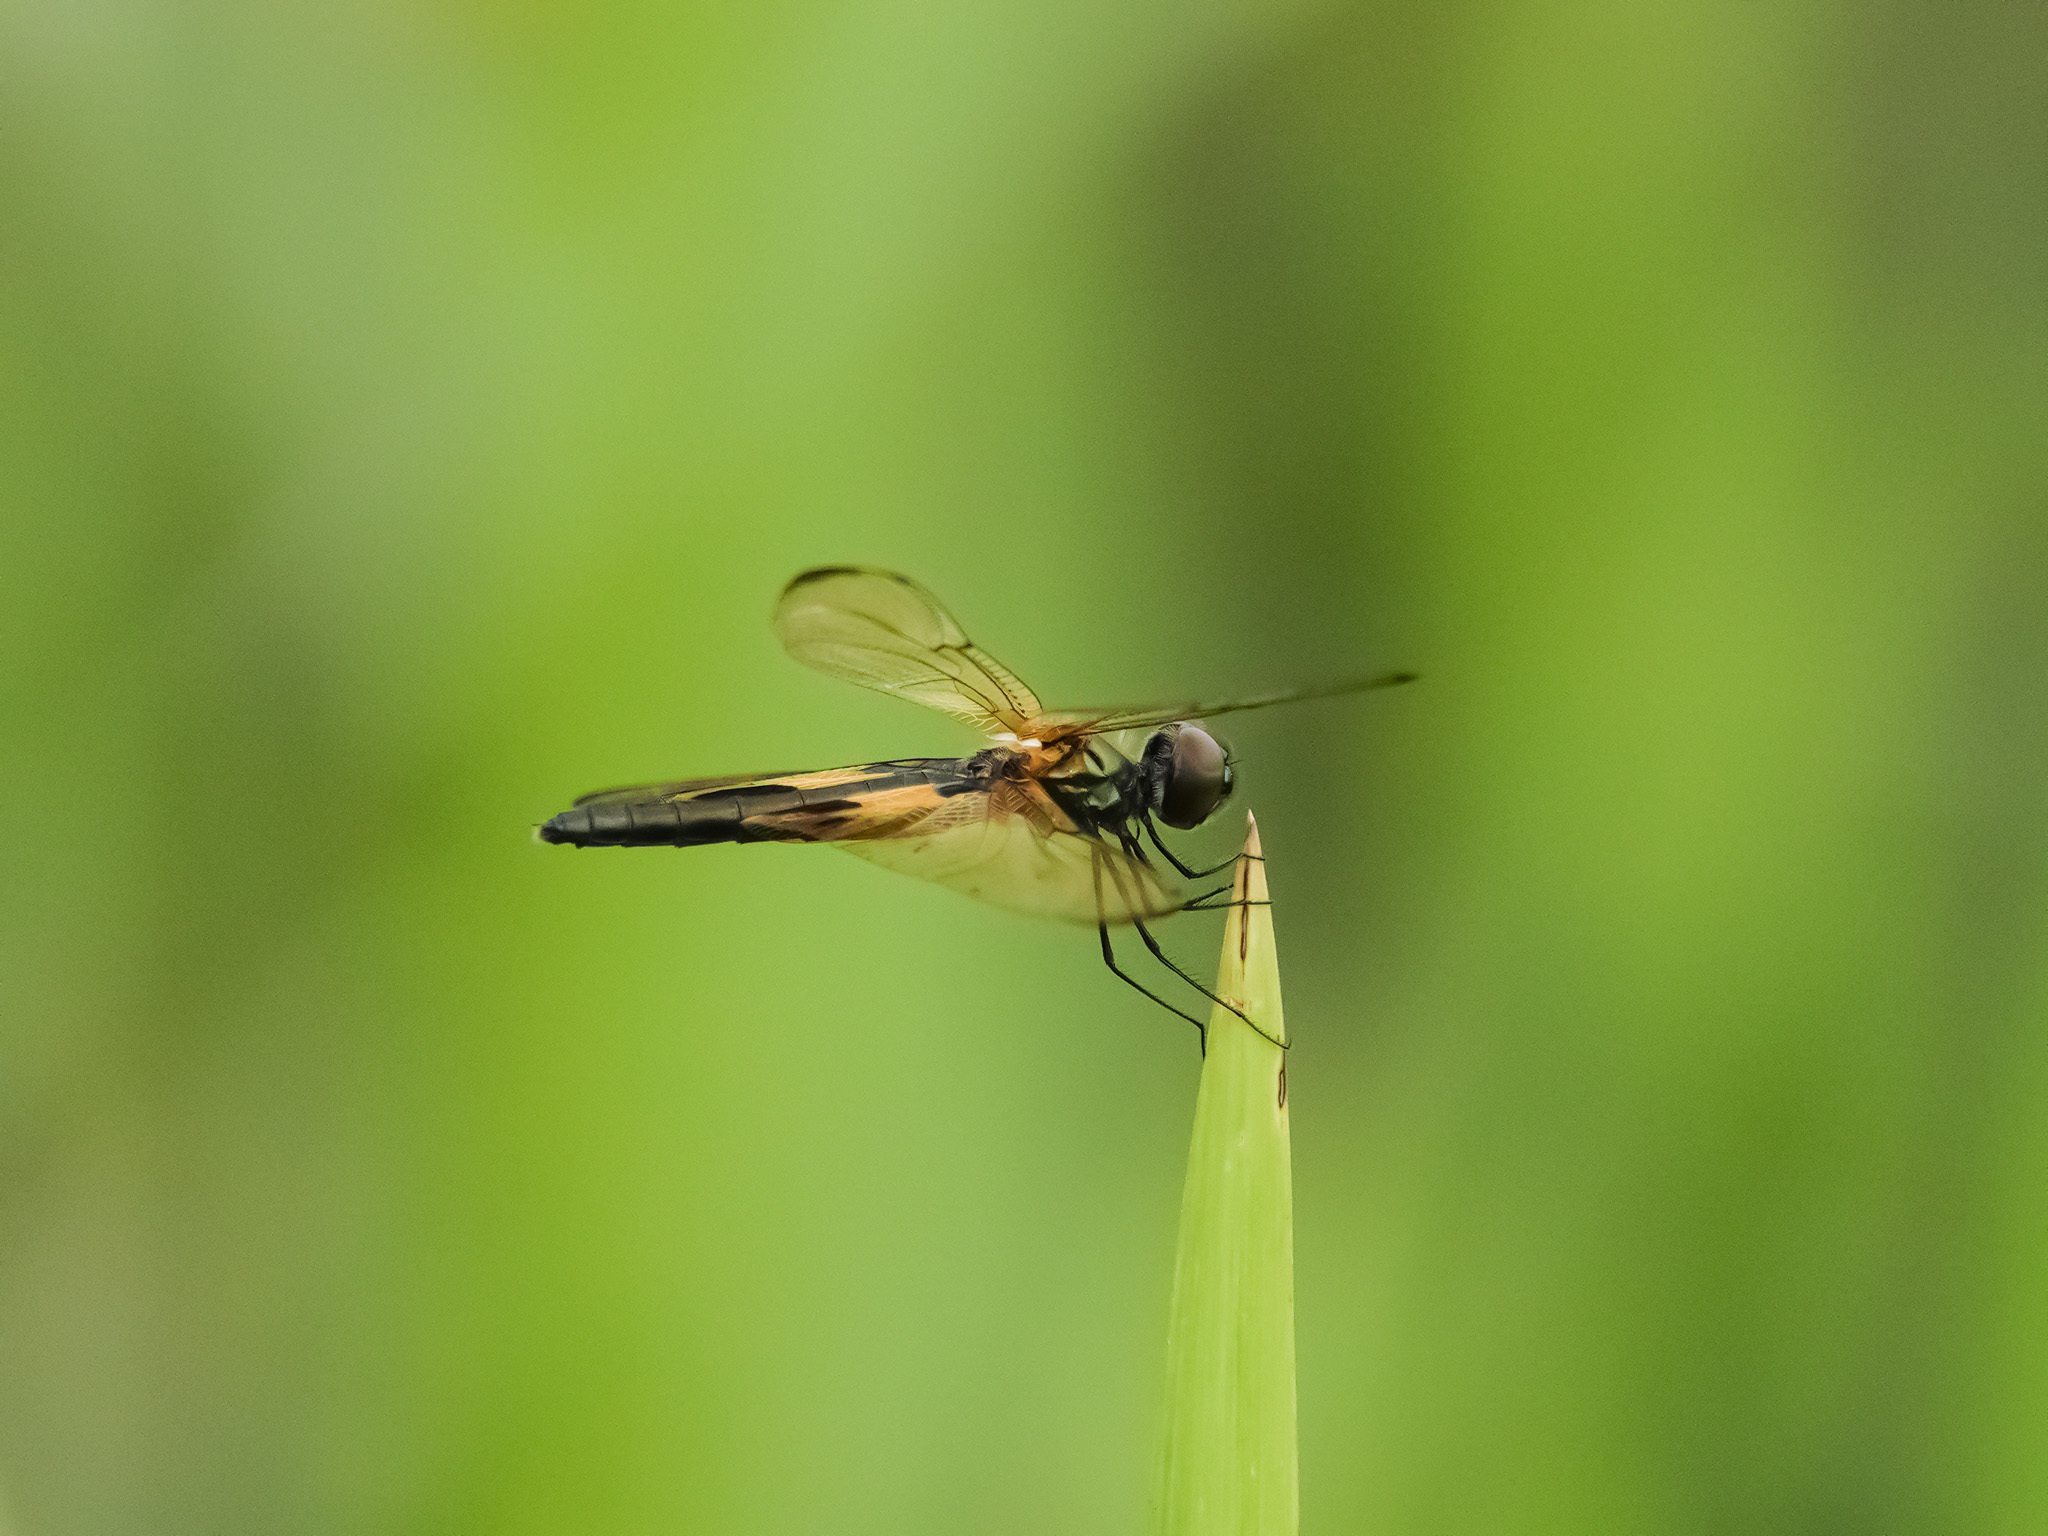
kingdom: Animalia
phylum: Arthropoda
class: Insecta
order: Odonata
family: Libellulidae
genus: Rhyothemis
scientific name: Rhyothemis phyllis
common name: Yellow-barred flutterer
